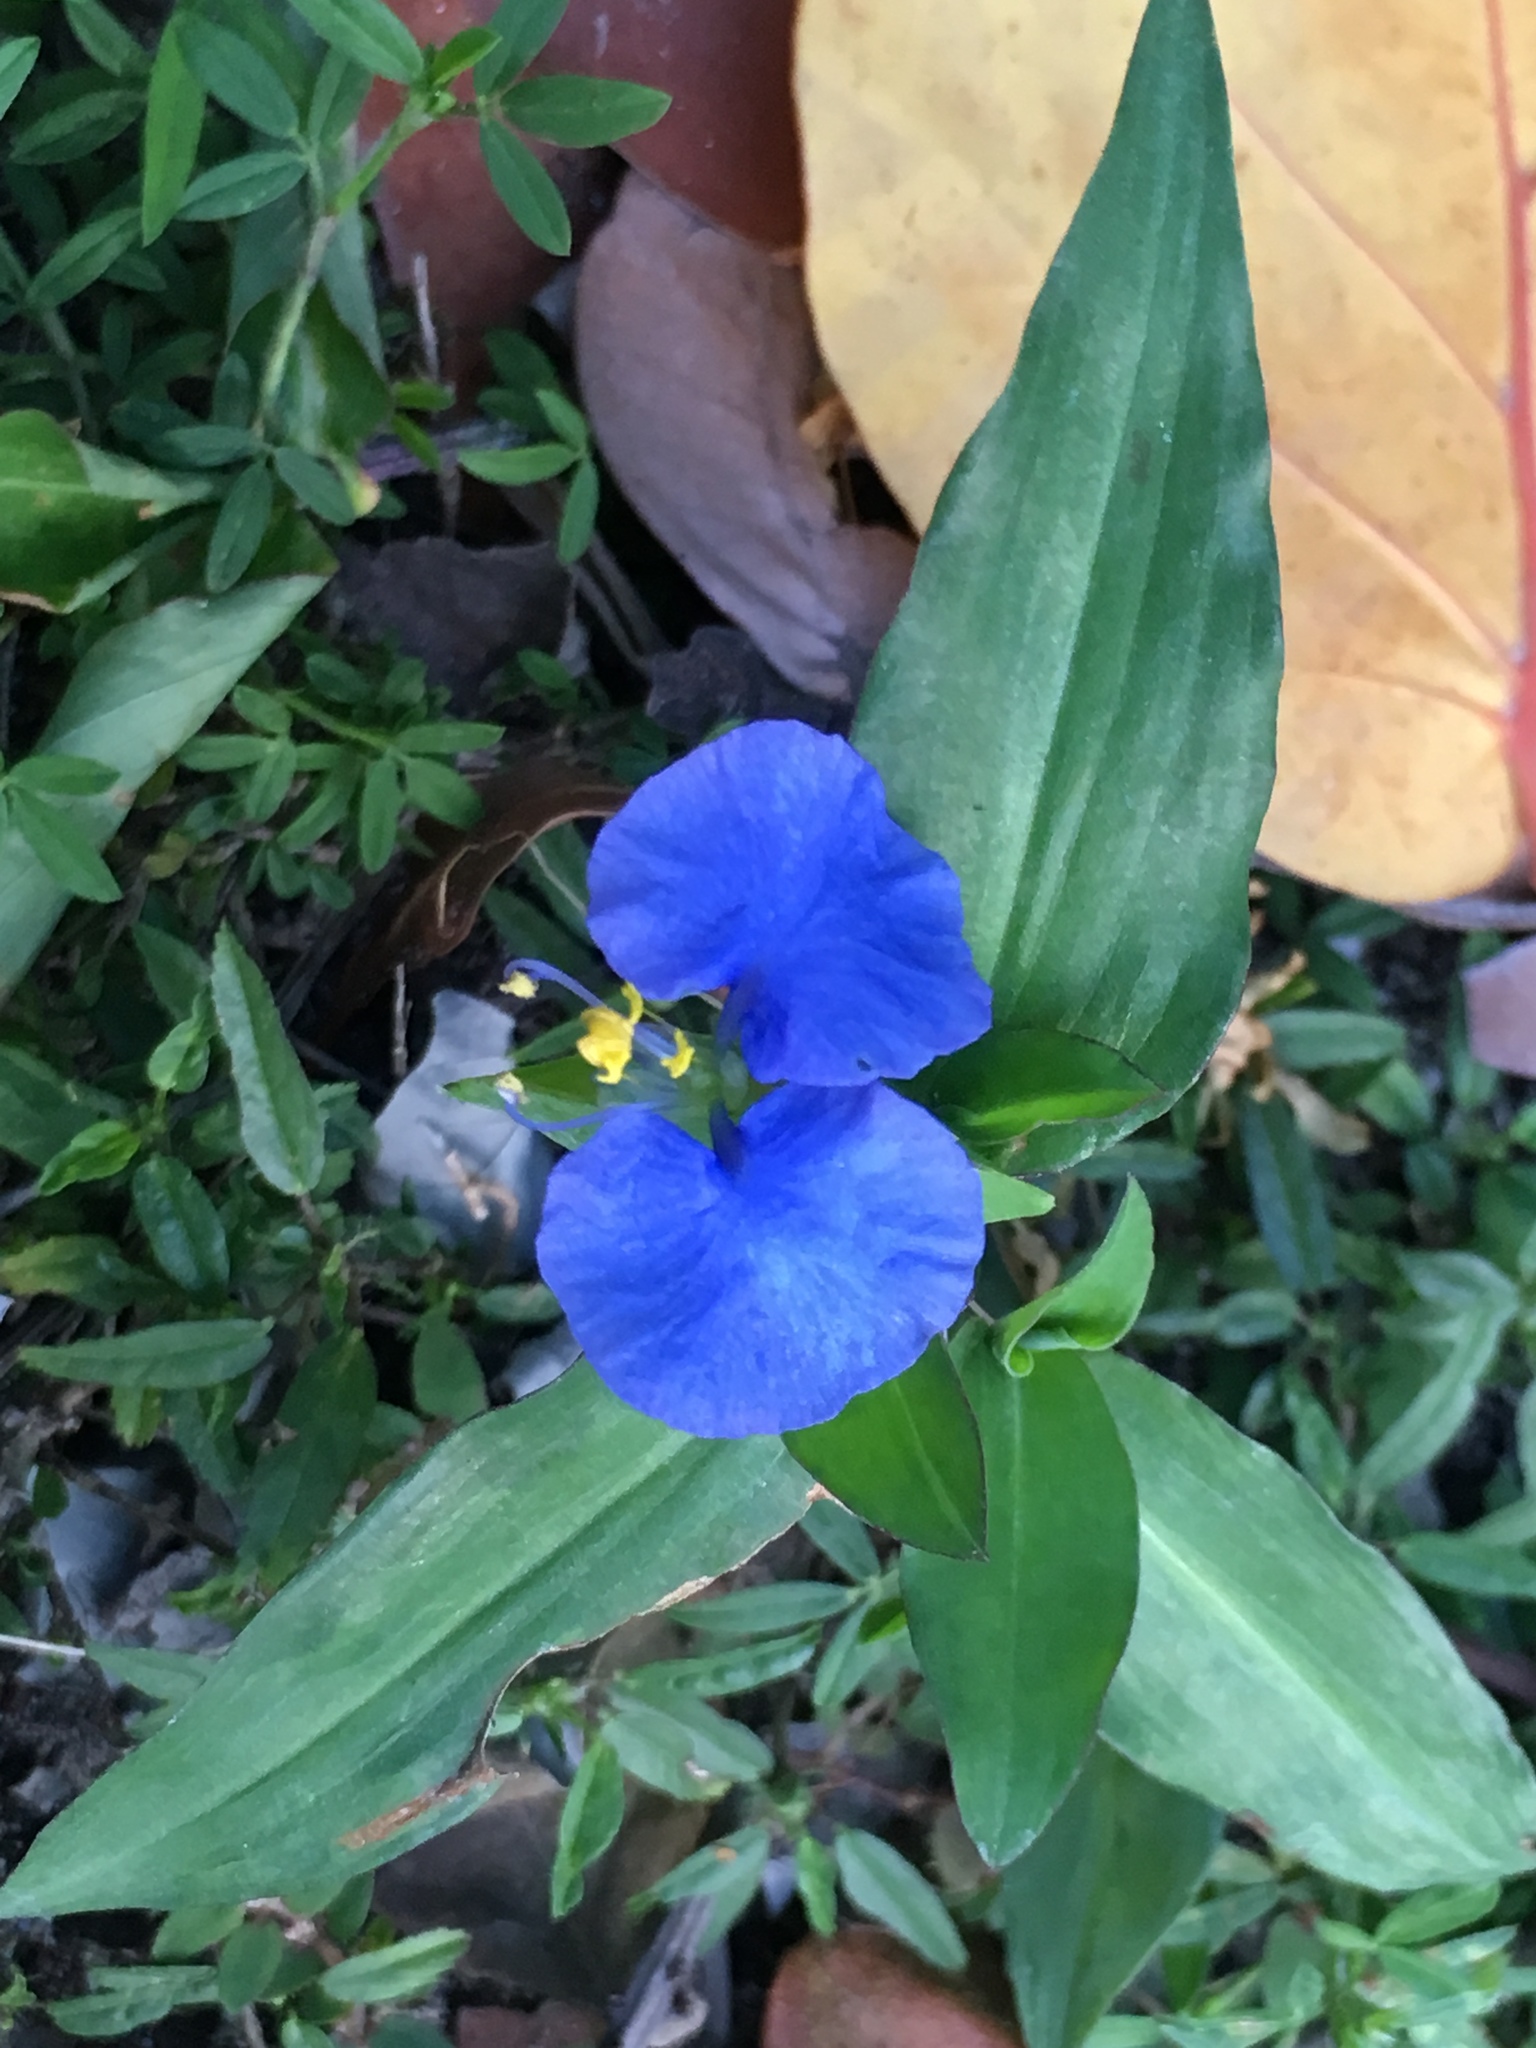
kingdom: Plantae
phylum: Tracheophyta
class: Liliopsida
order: Commelinales
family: Commelinaceae
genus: Commelina
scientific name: Commelina erecta
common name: Blousel blommetjie
